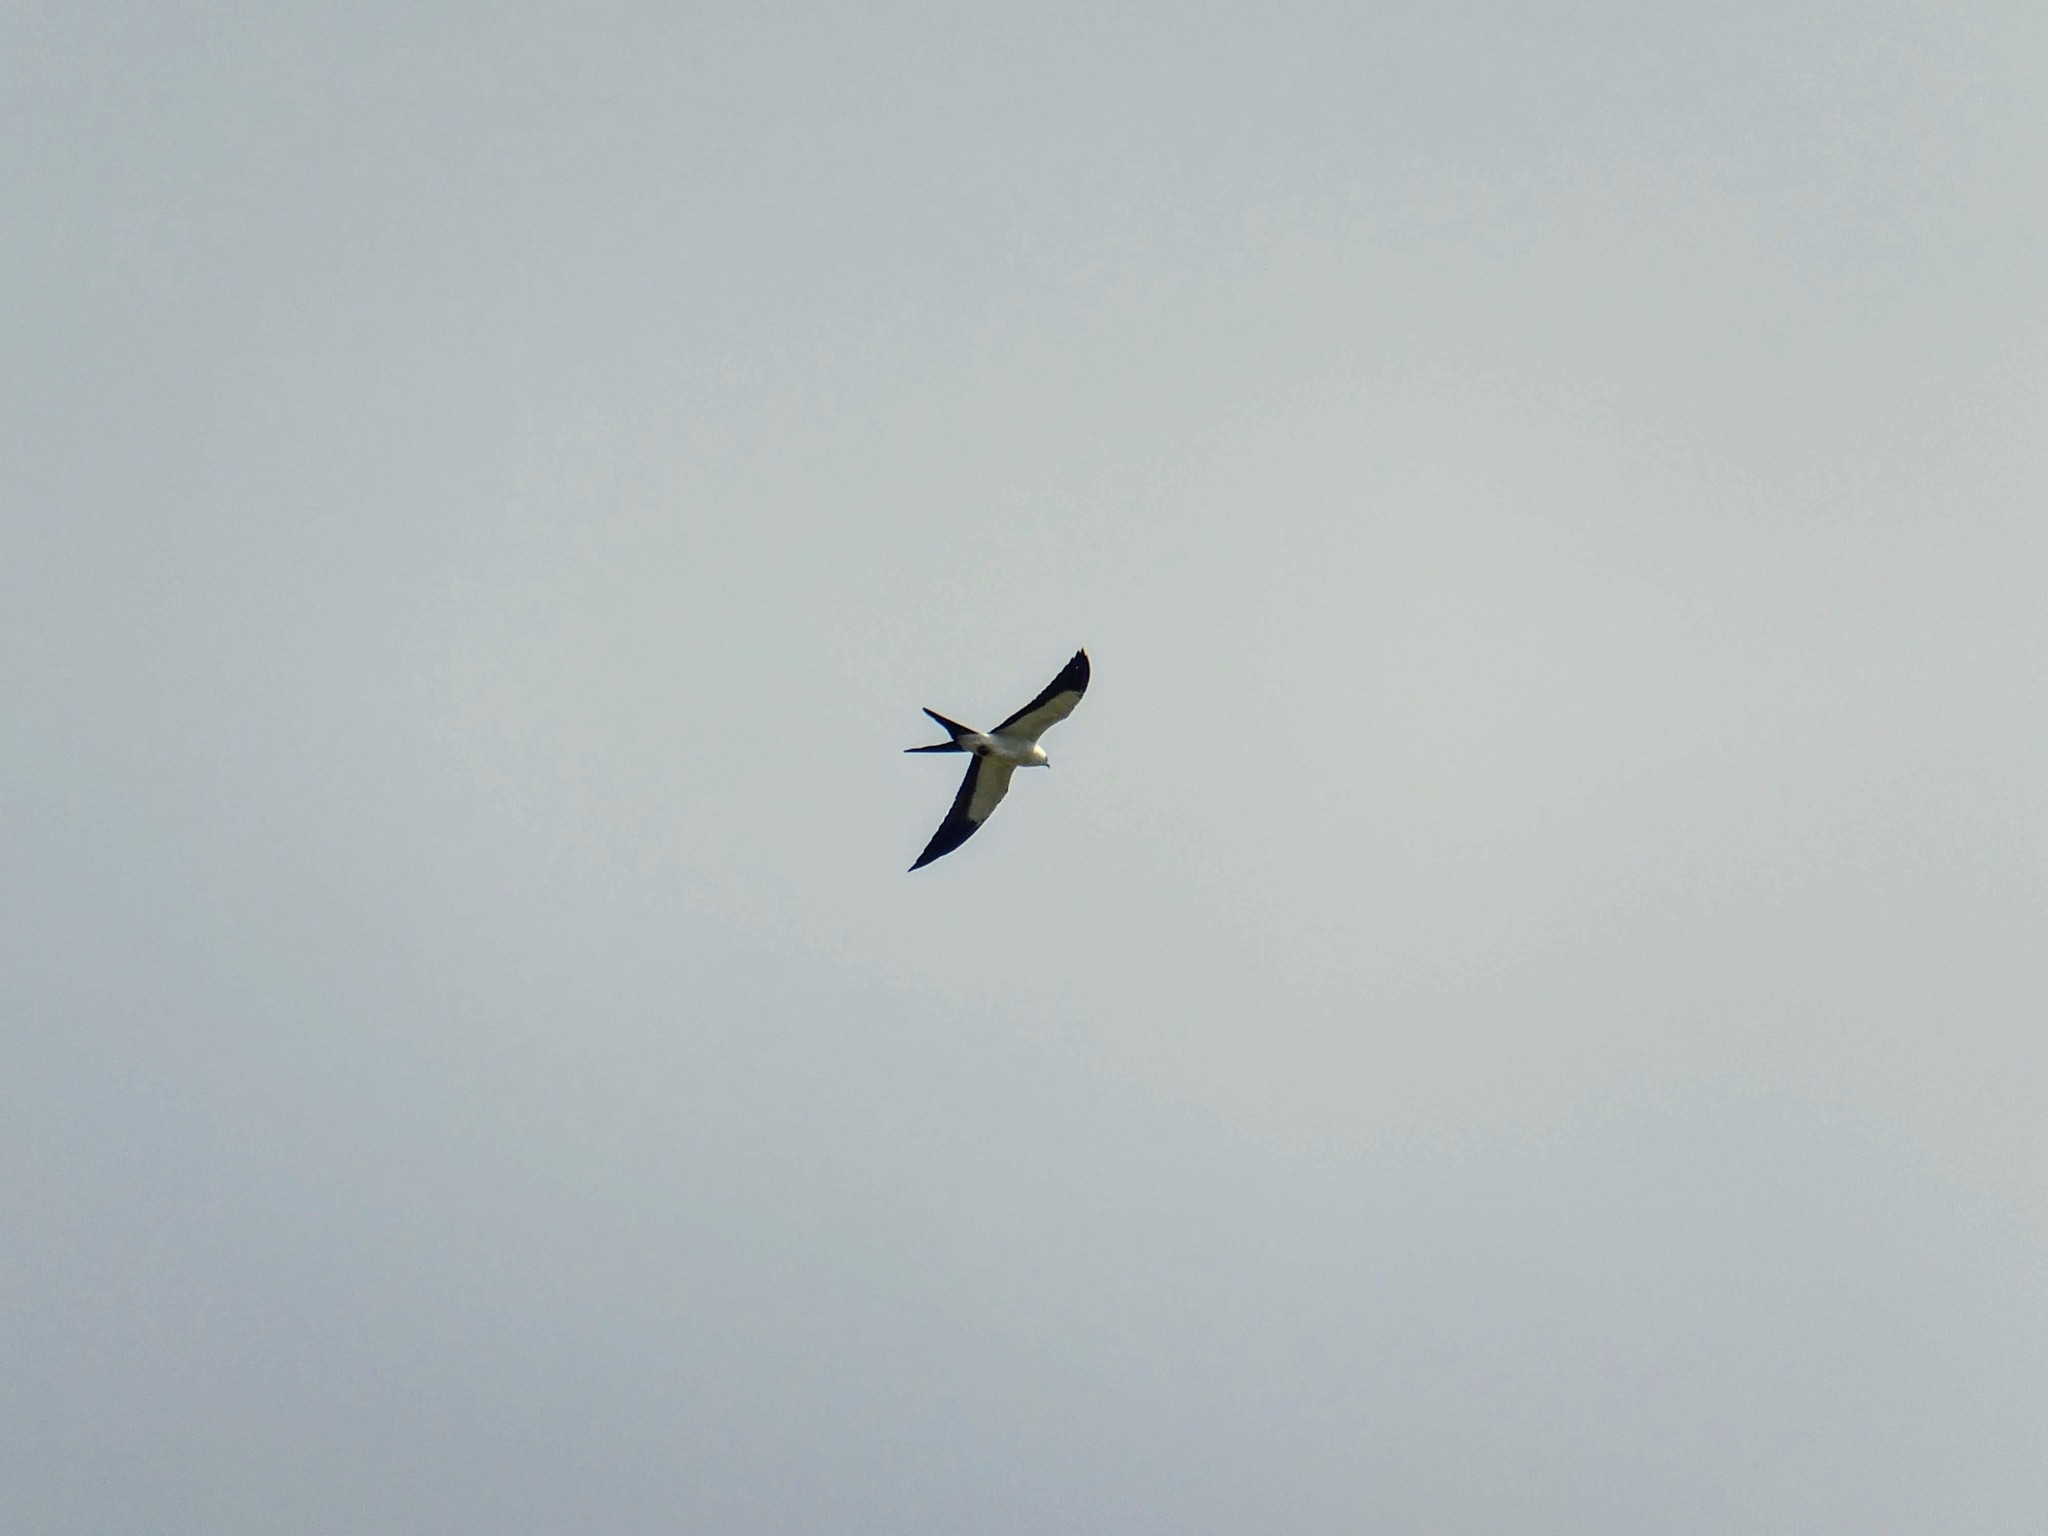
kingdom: Animalia
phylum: Chordata
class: Aves
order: Accipitriformes
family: Accipitridae
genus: Elanoides
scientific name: Elanoides forficatus
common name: Swallow-tailed kite
